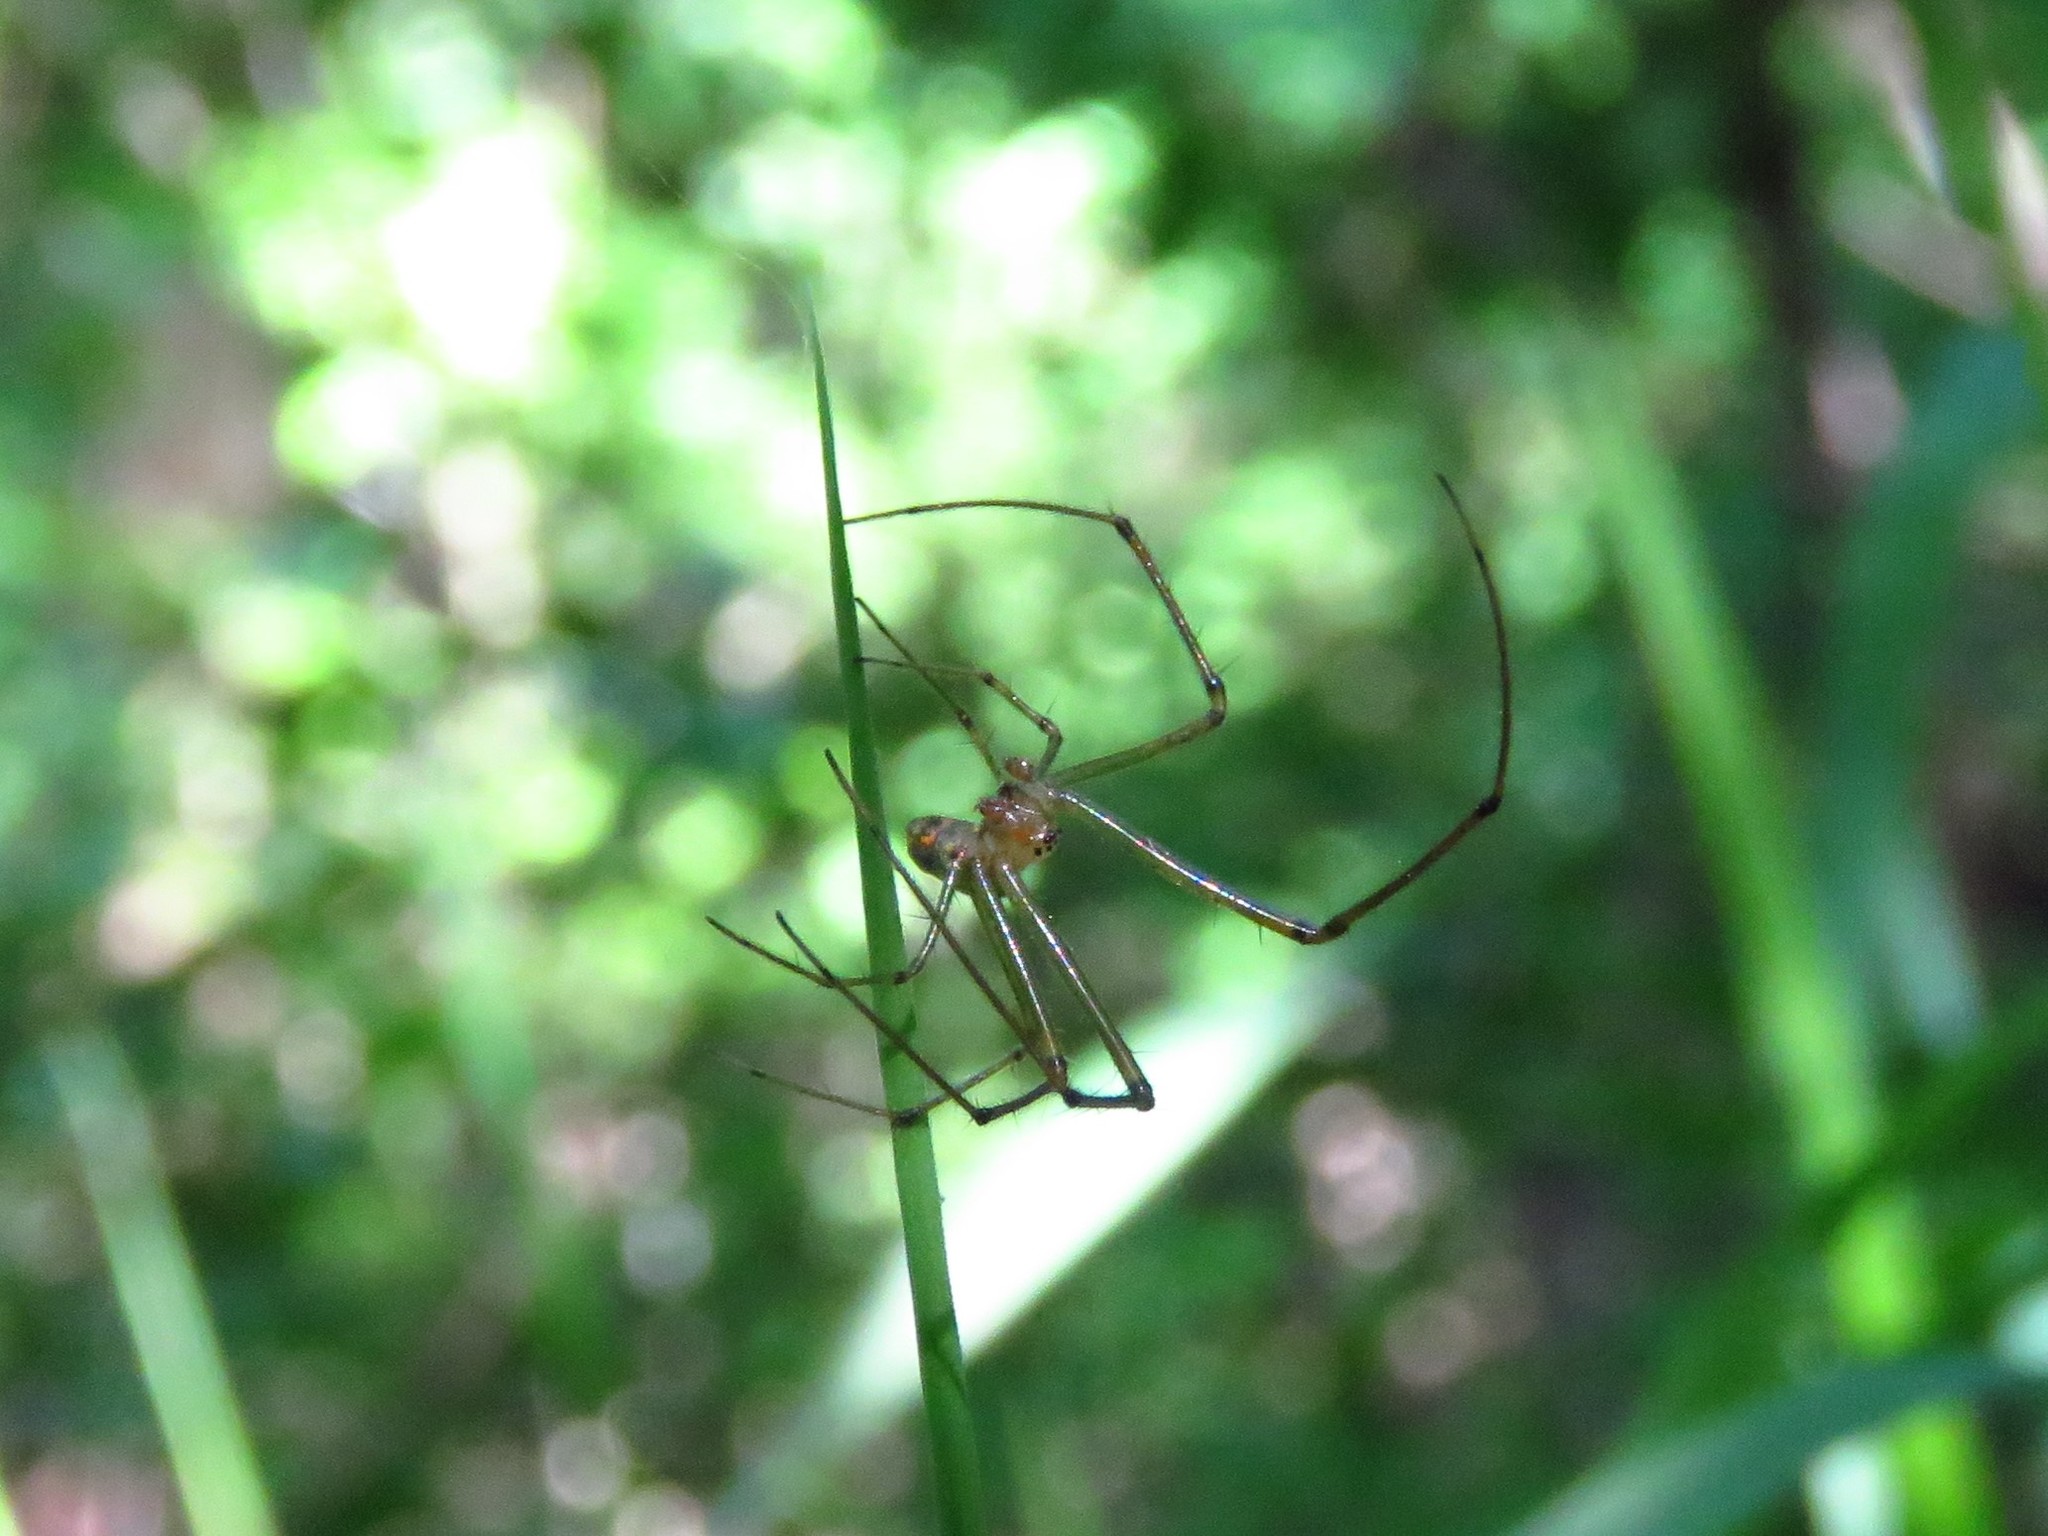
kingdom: Animalia
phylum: Arthropoda
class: Arachnida
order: Araneae
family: Tetragnathidae
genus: Leucauge
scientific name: Leucauge venusta
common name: Longjawed orb weavers
